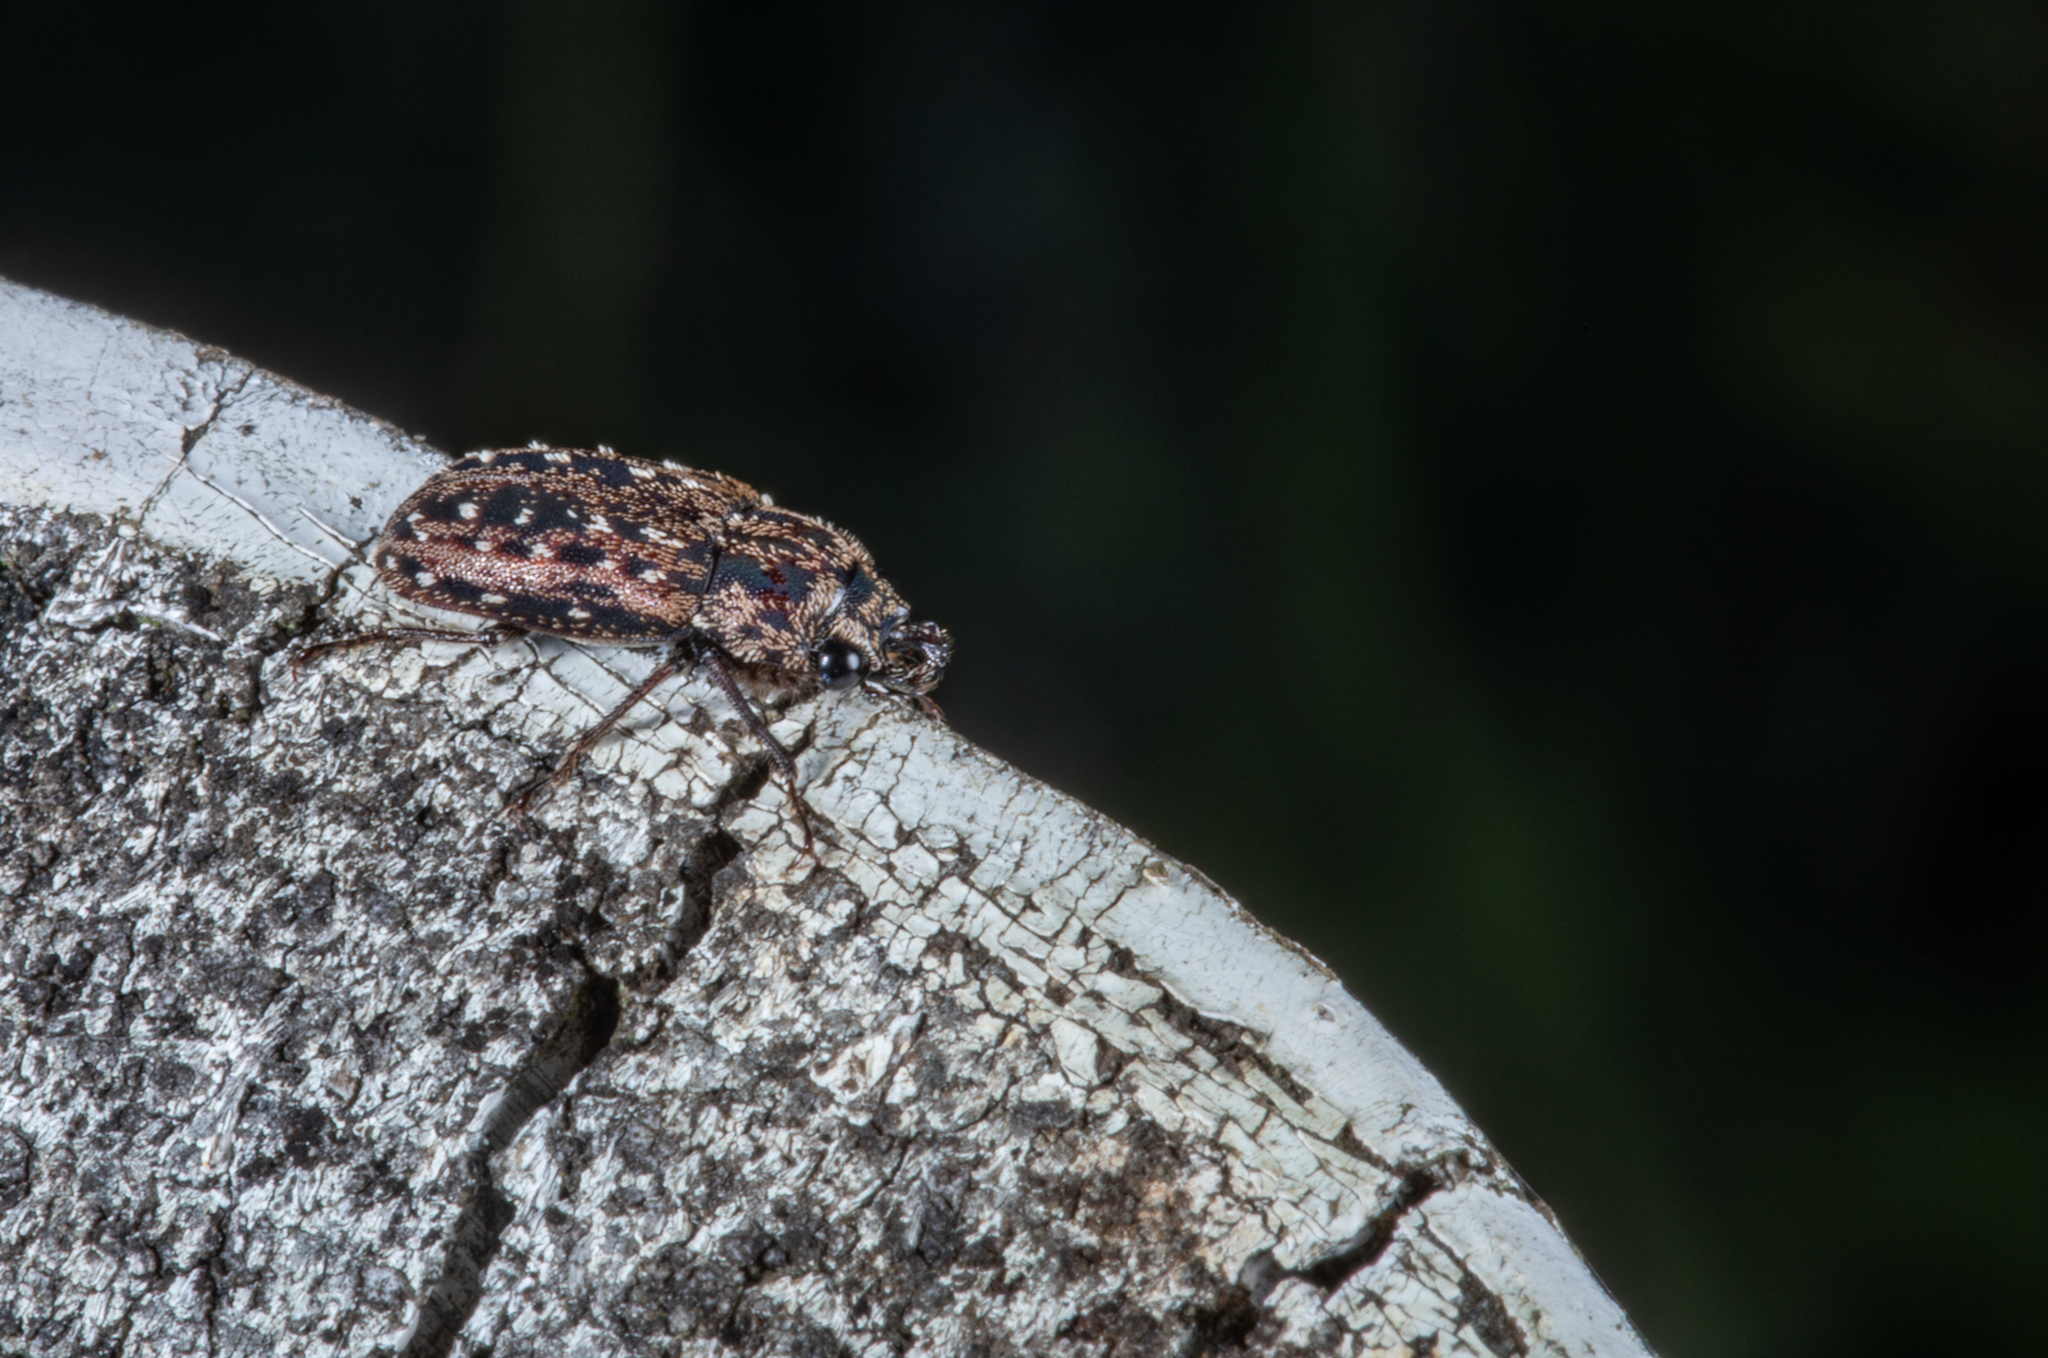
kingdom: Animalia
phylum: Arthropoda
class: Insecta
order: Coleoptera
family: Lucanidae
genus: Mitophyllus
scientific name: Mitophyllus arcuatus
